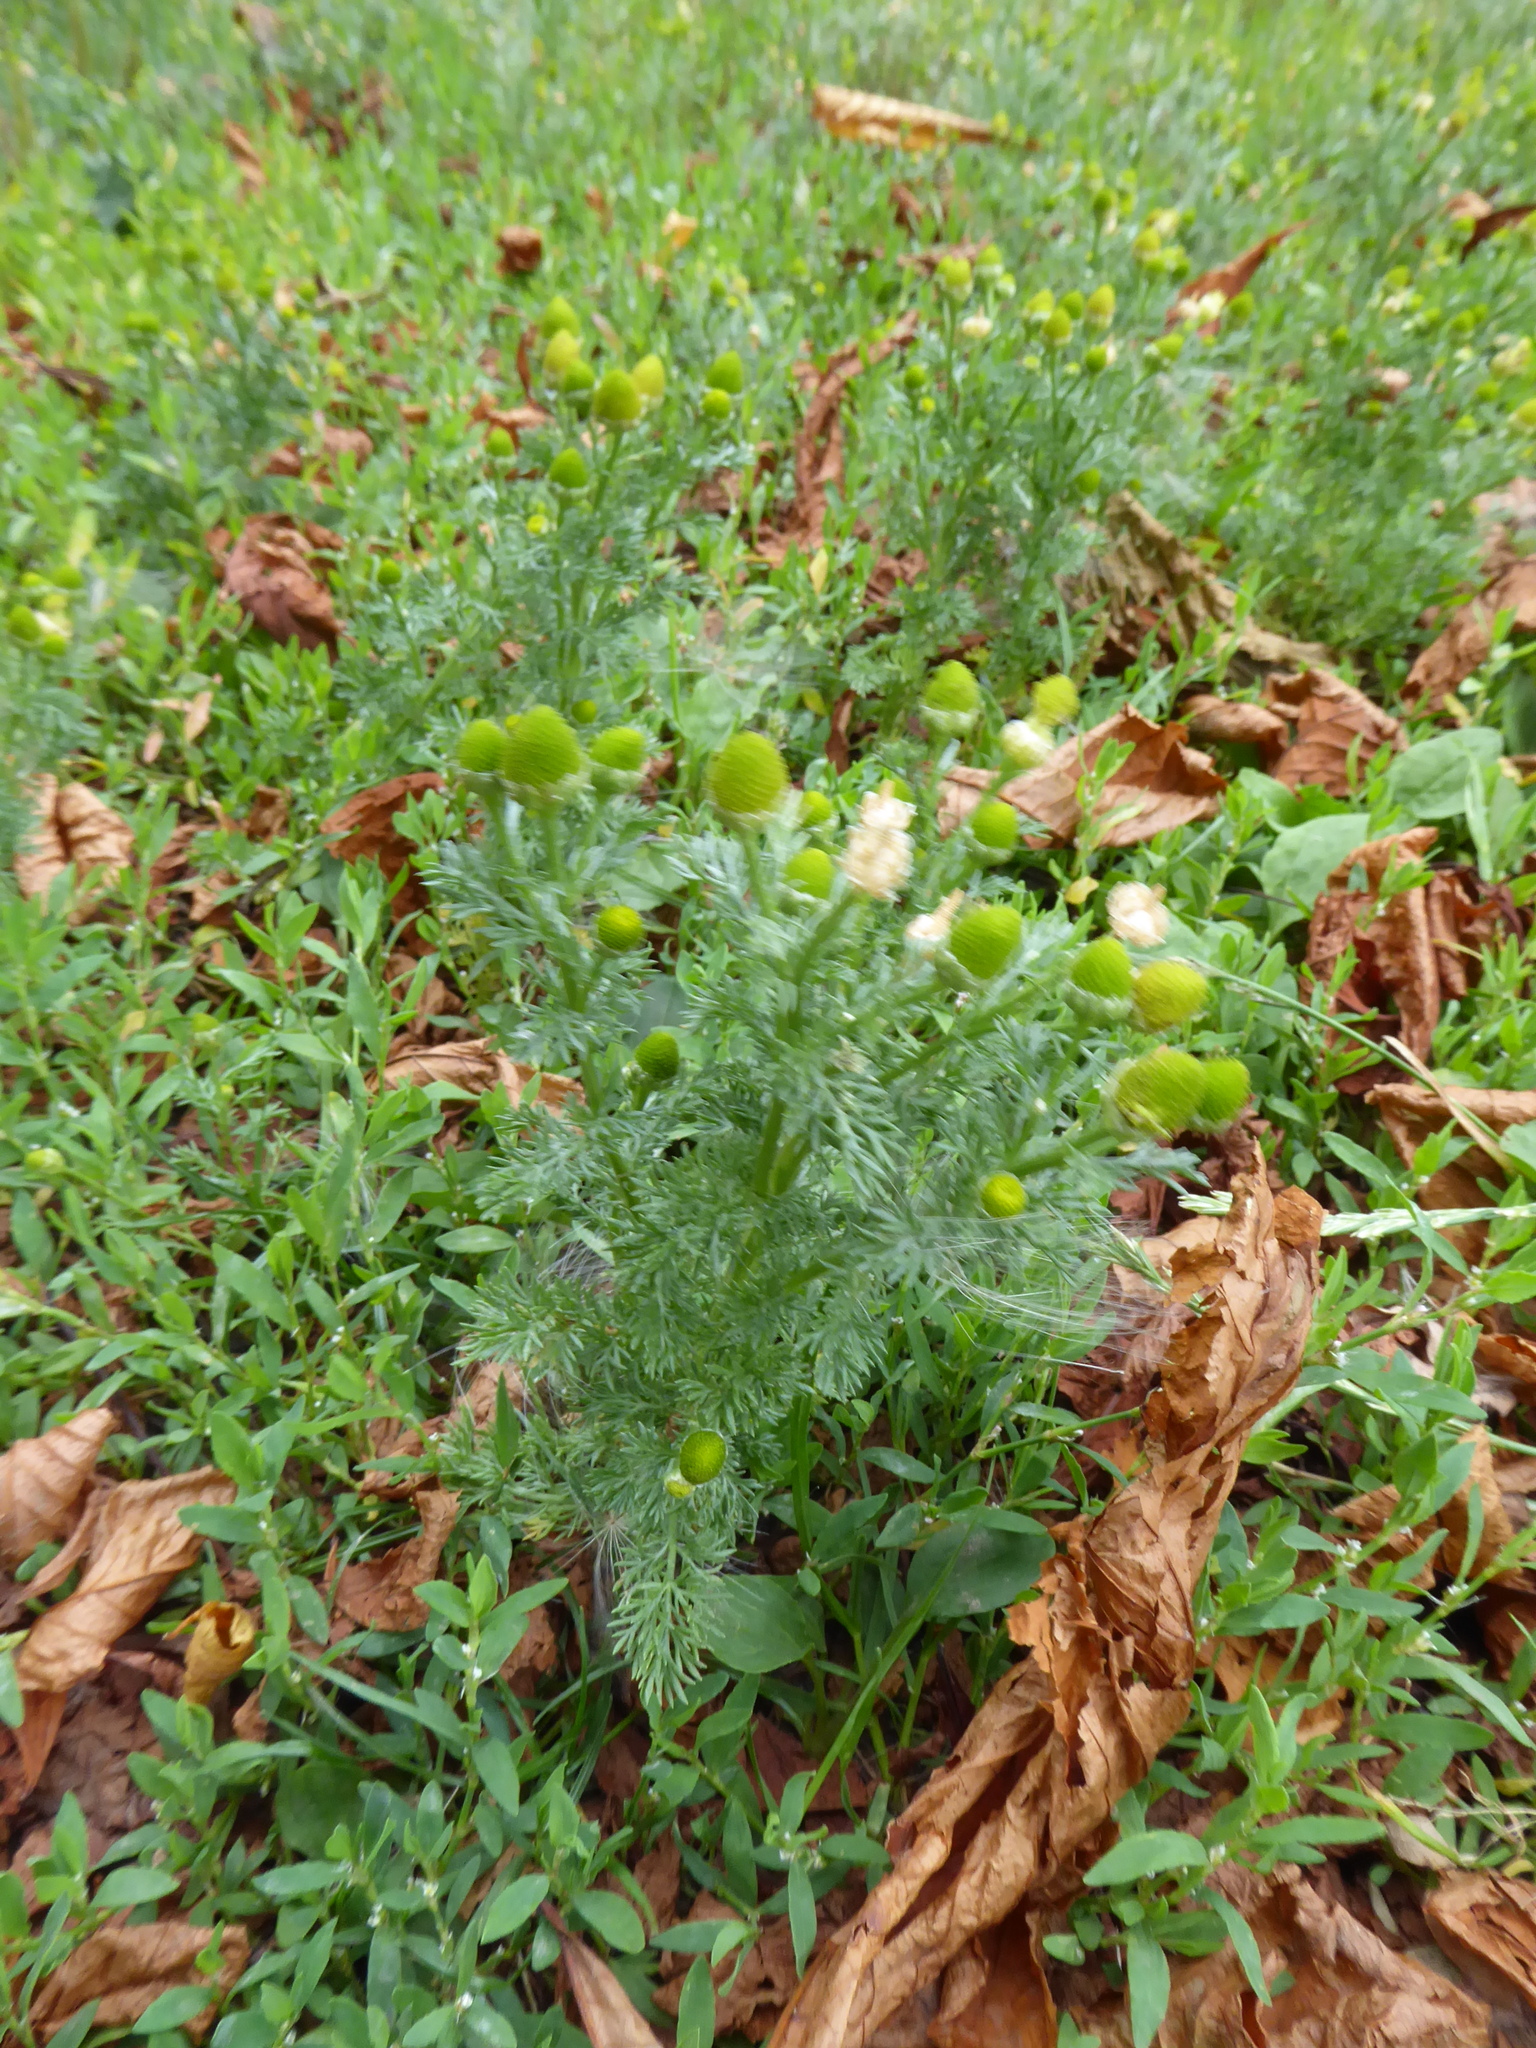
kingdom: Plantae
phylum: Tracheophyta
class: Magnoliopsida
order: Asterales
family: Asteraceae
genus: Matricaria
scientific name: Matricaria discoidea
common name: Disc mayweed
